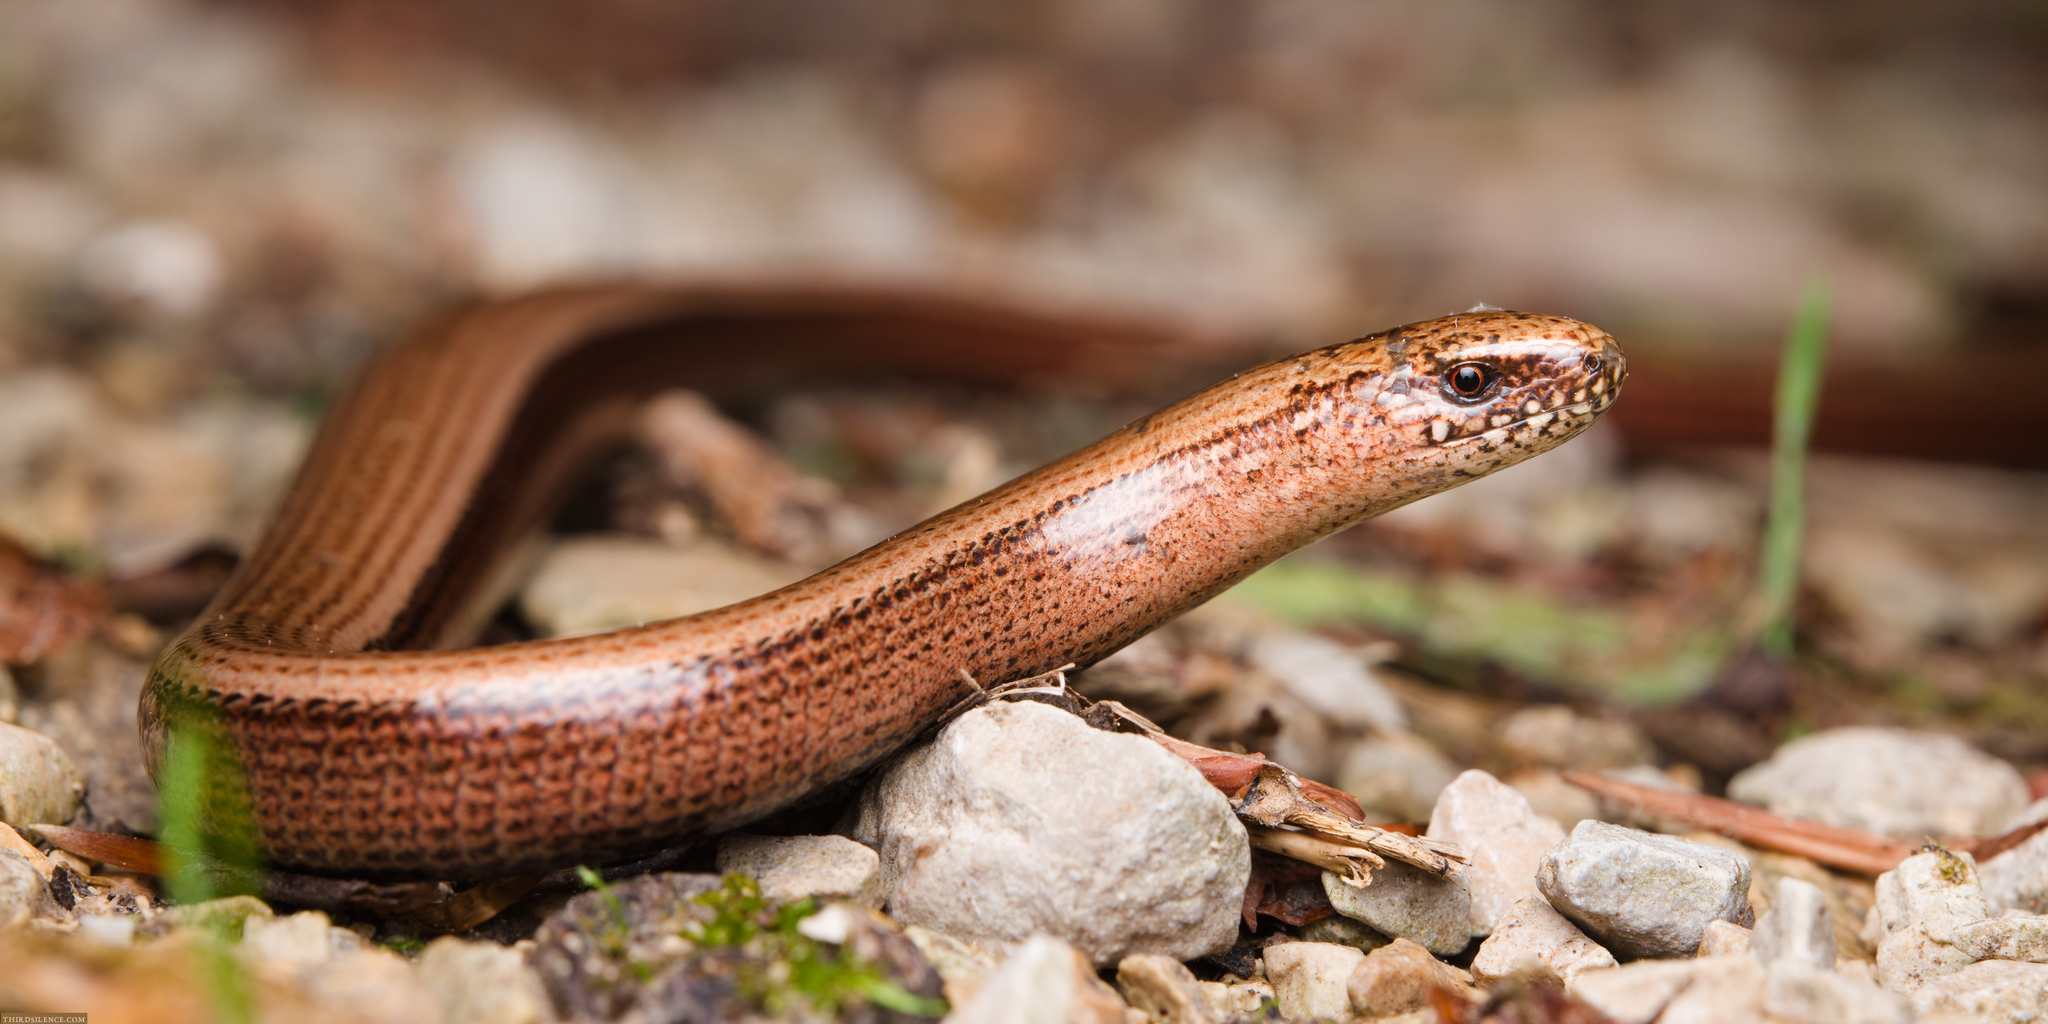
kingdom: Animalia
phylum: Chordata
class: Squamata
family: Anguidae
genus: Anguis
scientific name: Anguis fragilis
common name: Slow worm
